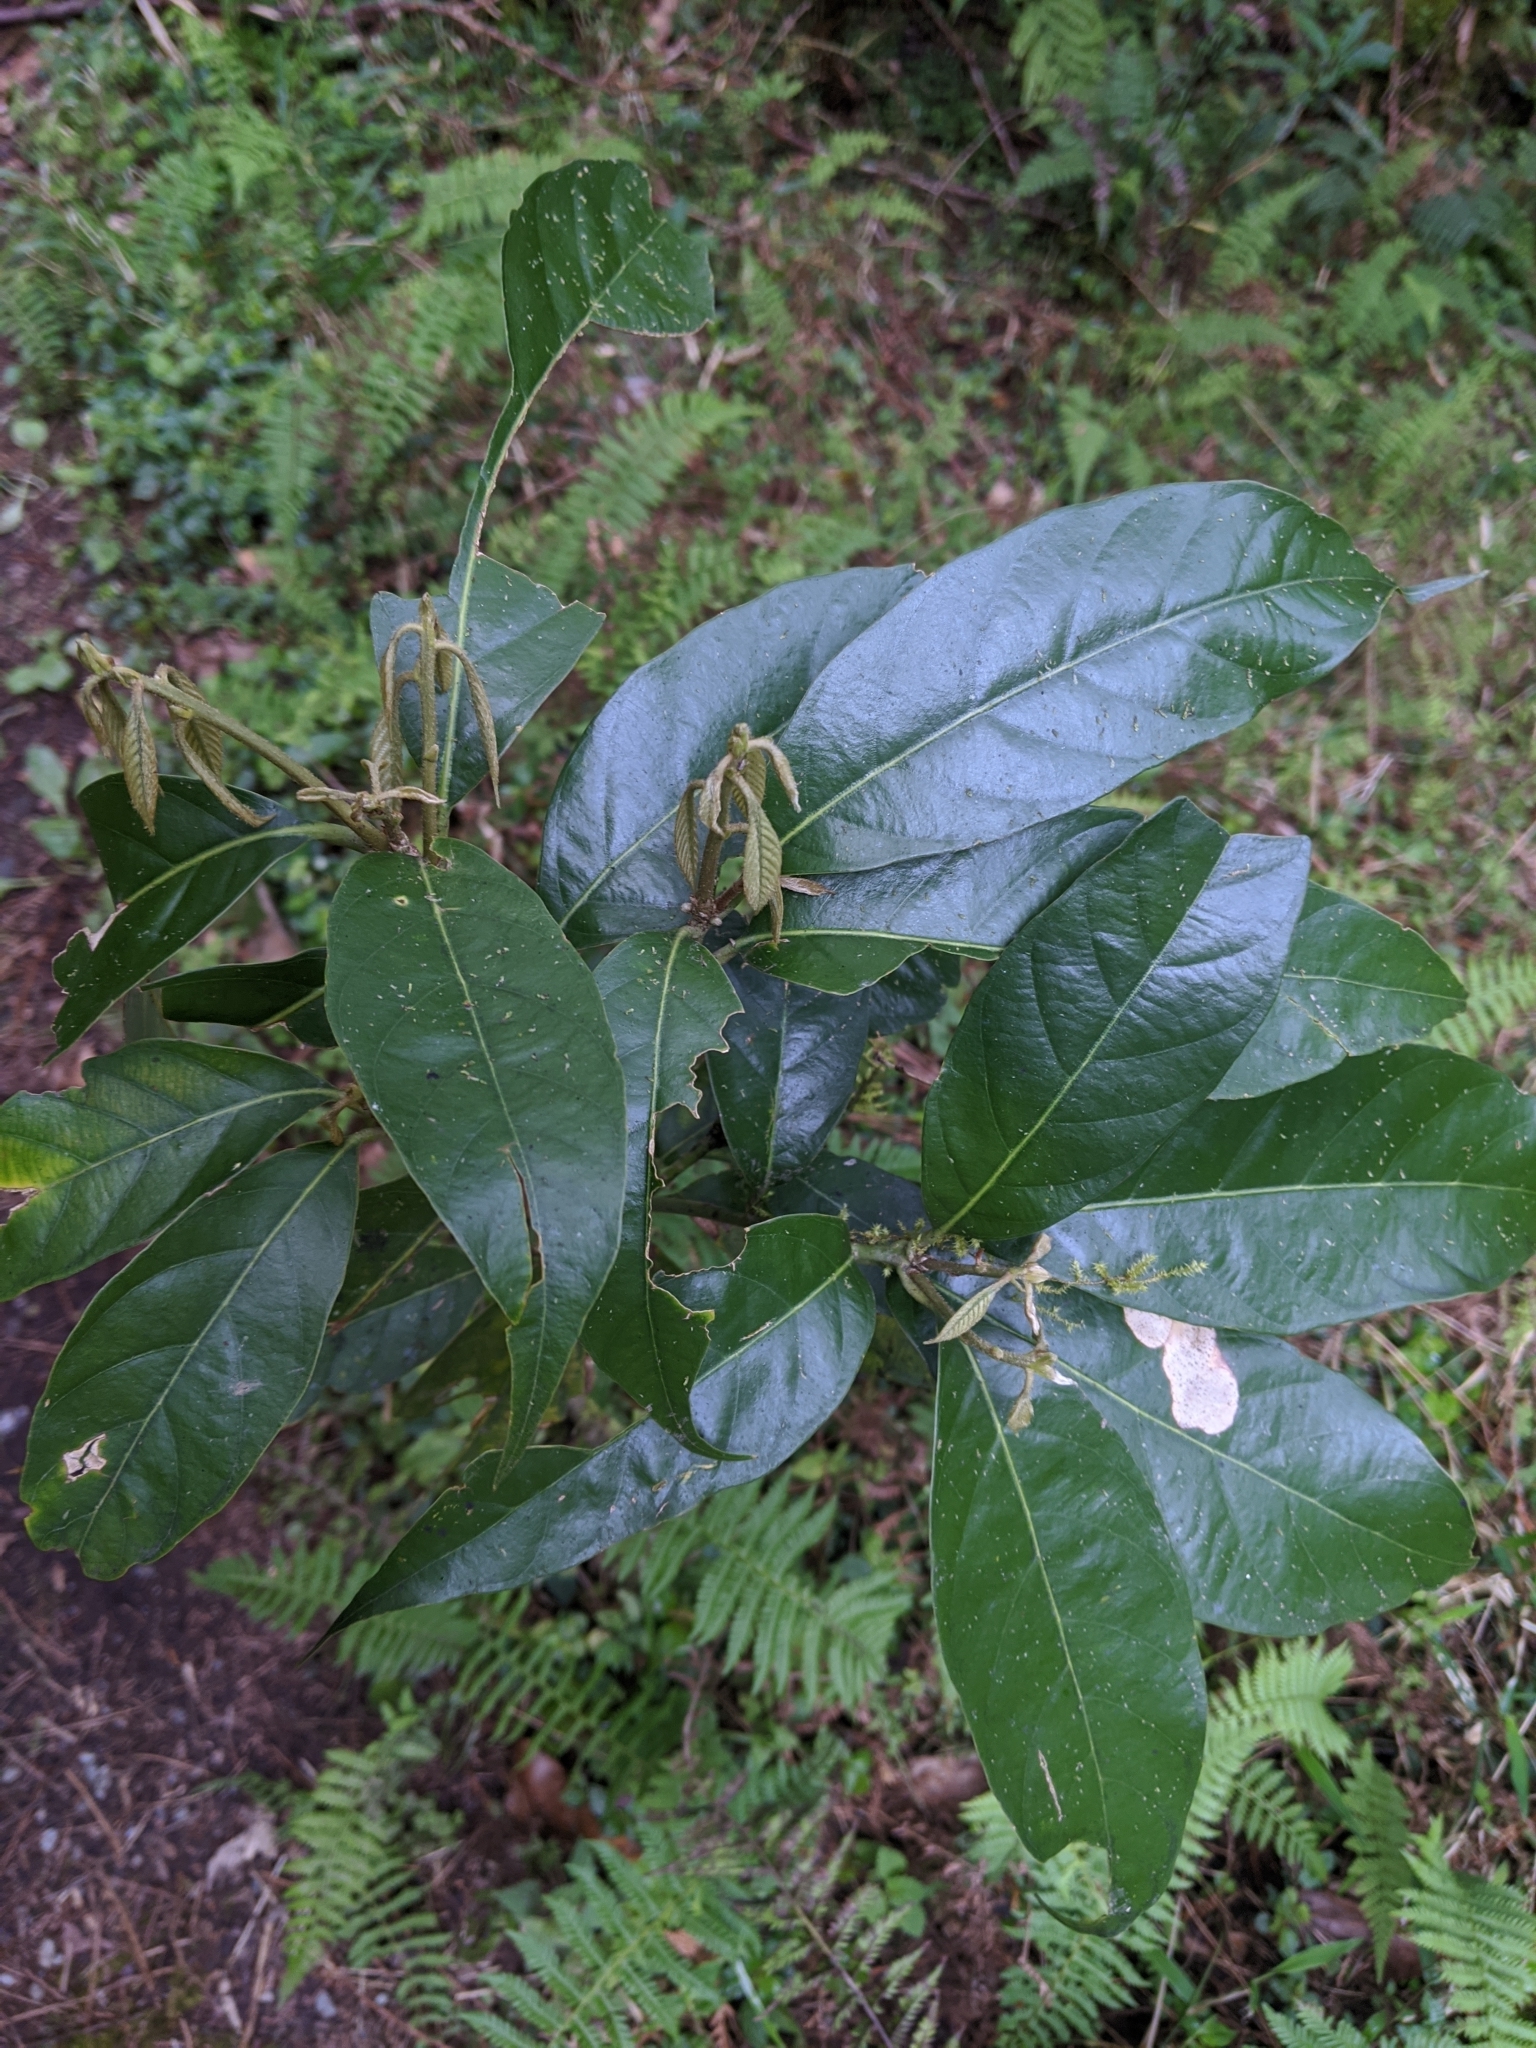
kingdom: Plantae
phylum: Tracheophyta
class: Magnoliopsida
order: Fagales
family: Fagaceae
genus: Lithocarpus
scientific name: Lithocarpus lepidocarpus
